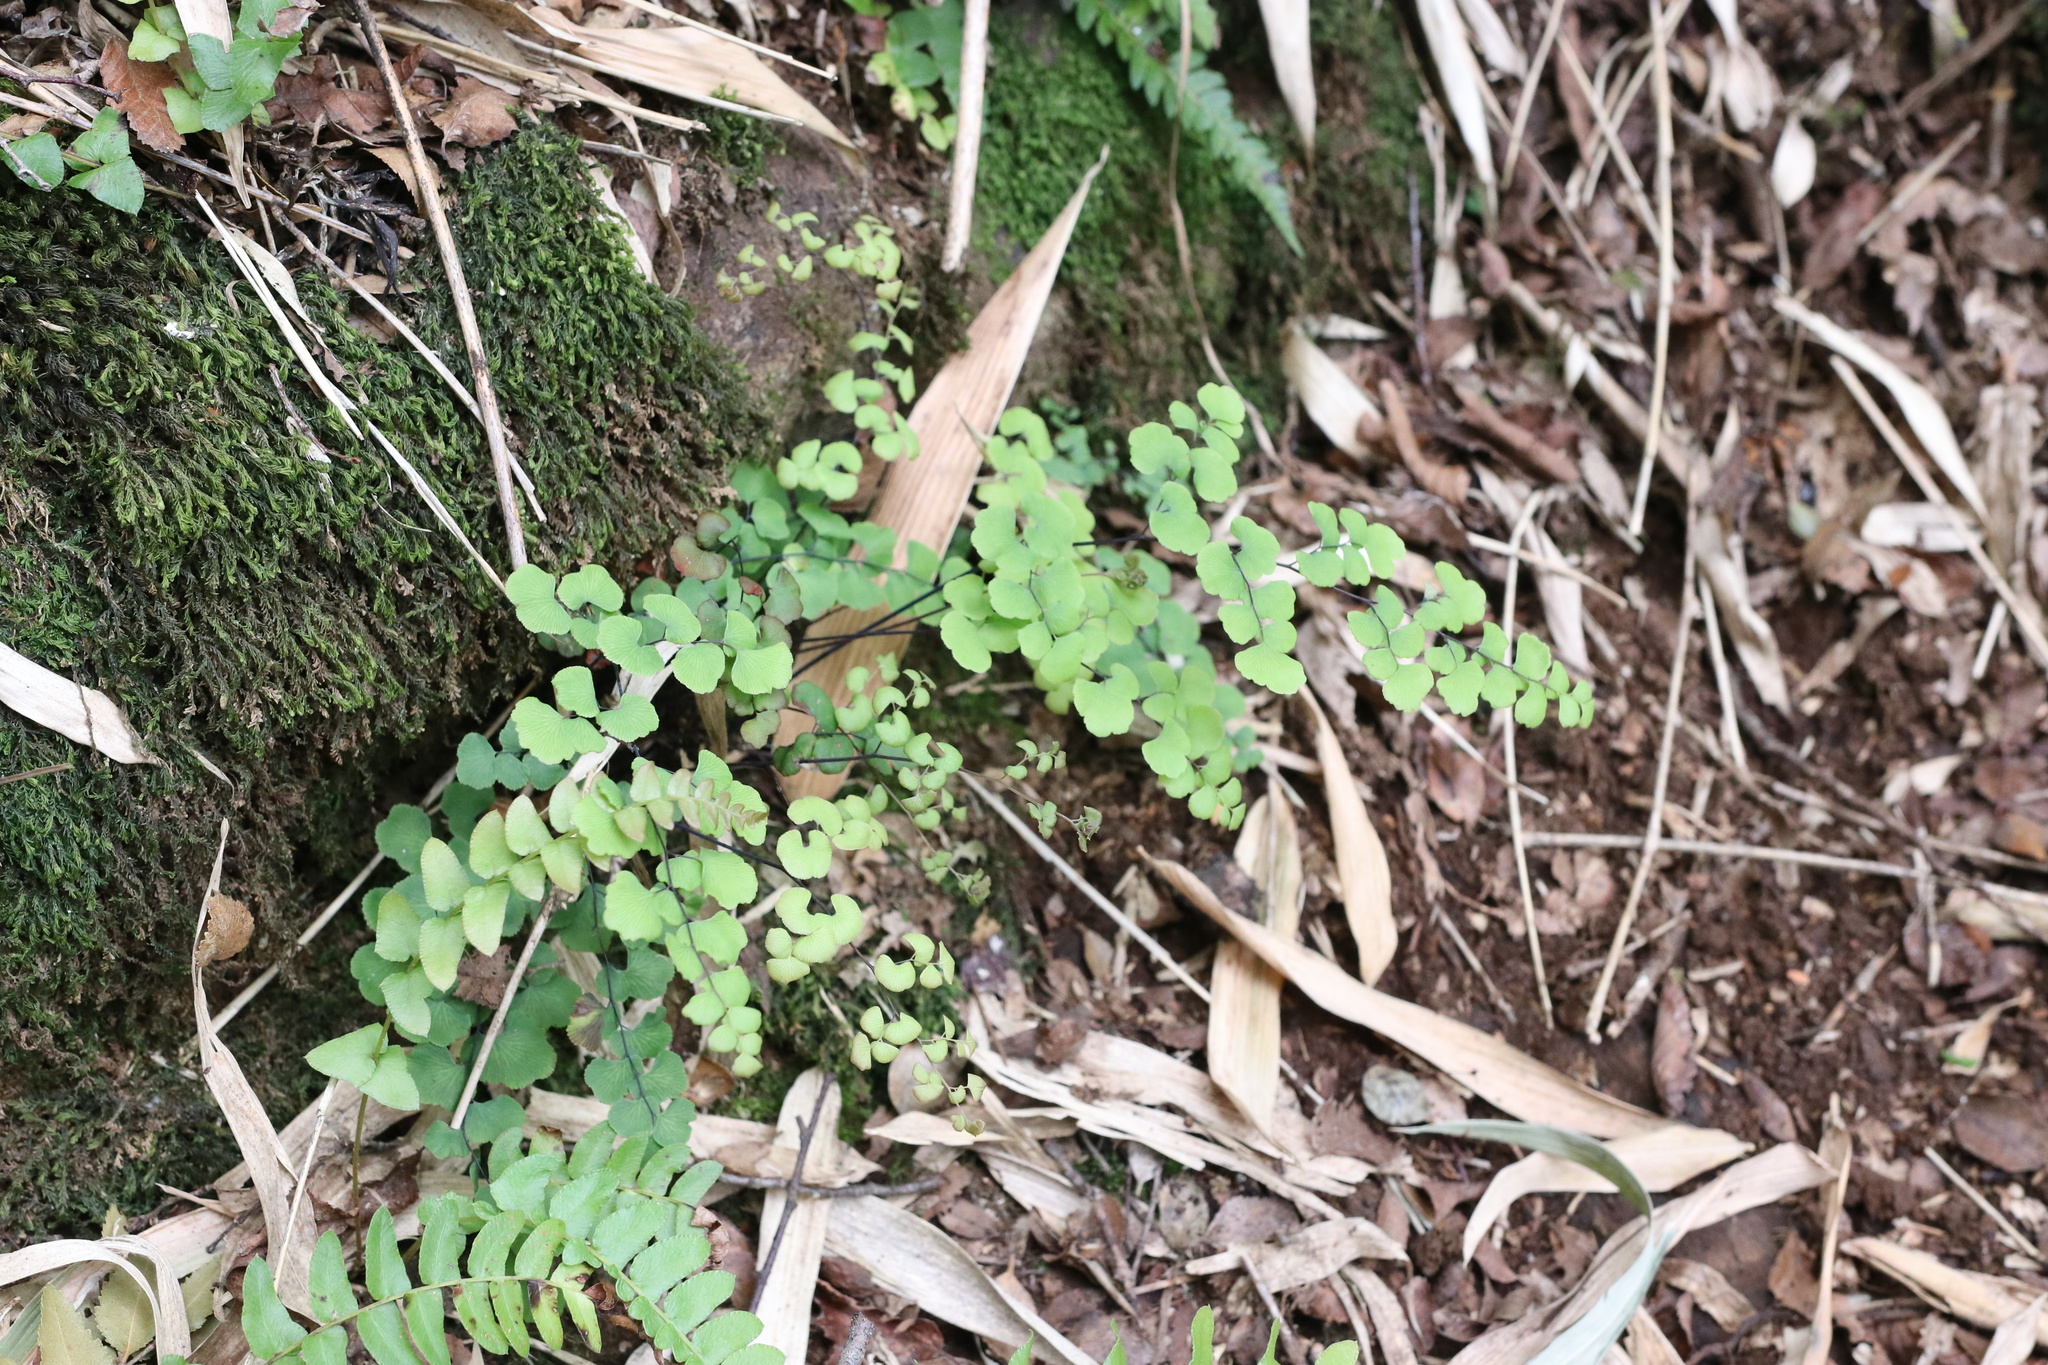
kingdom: Plantae
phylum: Tracheophyta
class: Polypodiopsida
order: Polypodiales
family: Pteridaceae
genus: Adiantum
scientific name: Adiantum chilense
